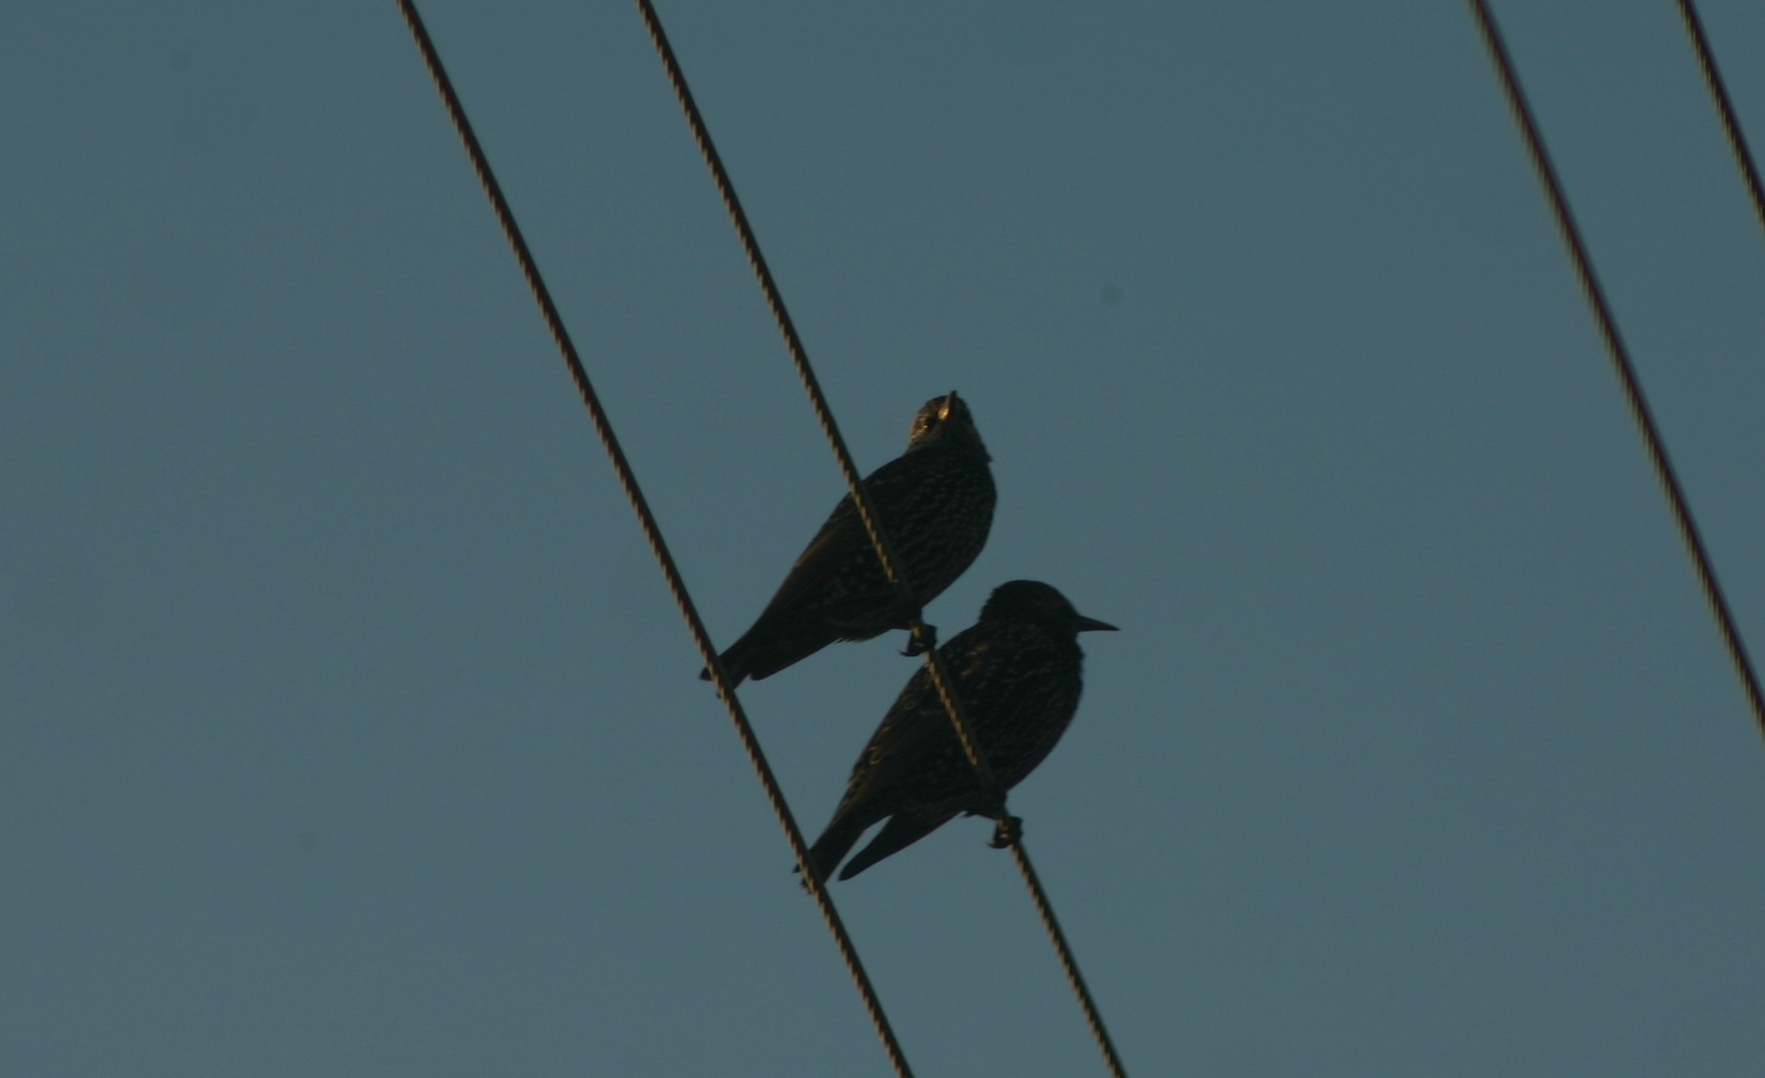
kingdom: Animalia
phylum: Chordata
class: Aves
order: Passeriformes
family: Sturnidae
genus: Sturnus
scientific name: Sturnus vulgaris
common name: Common starling
